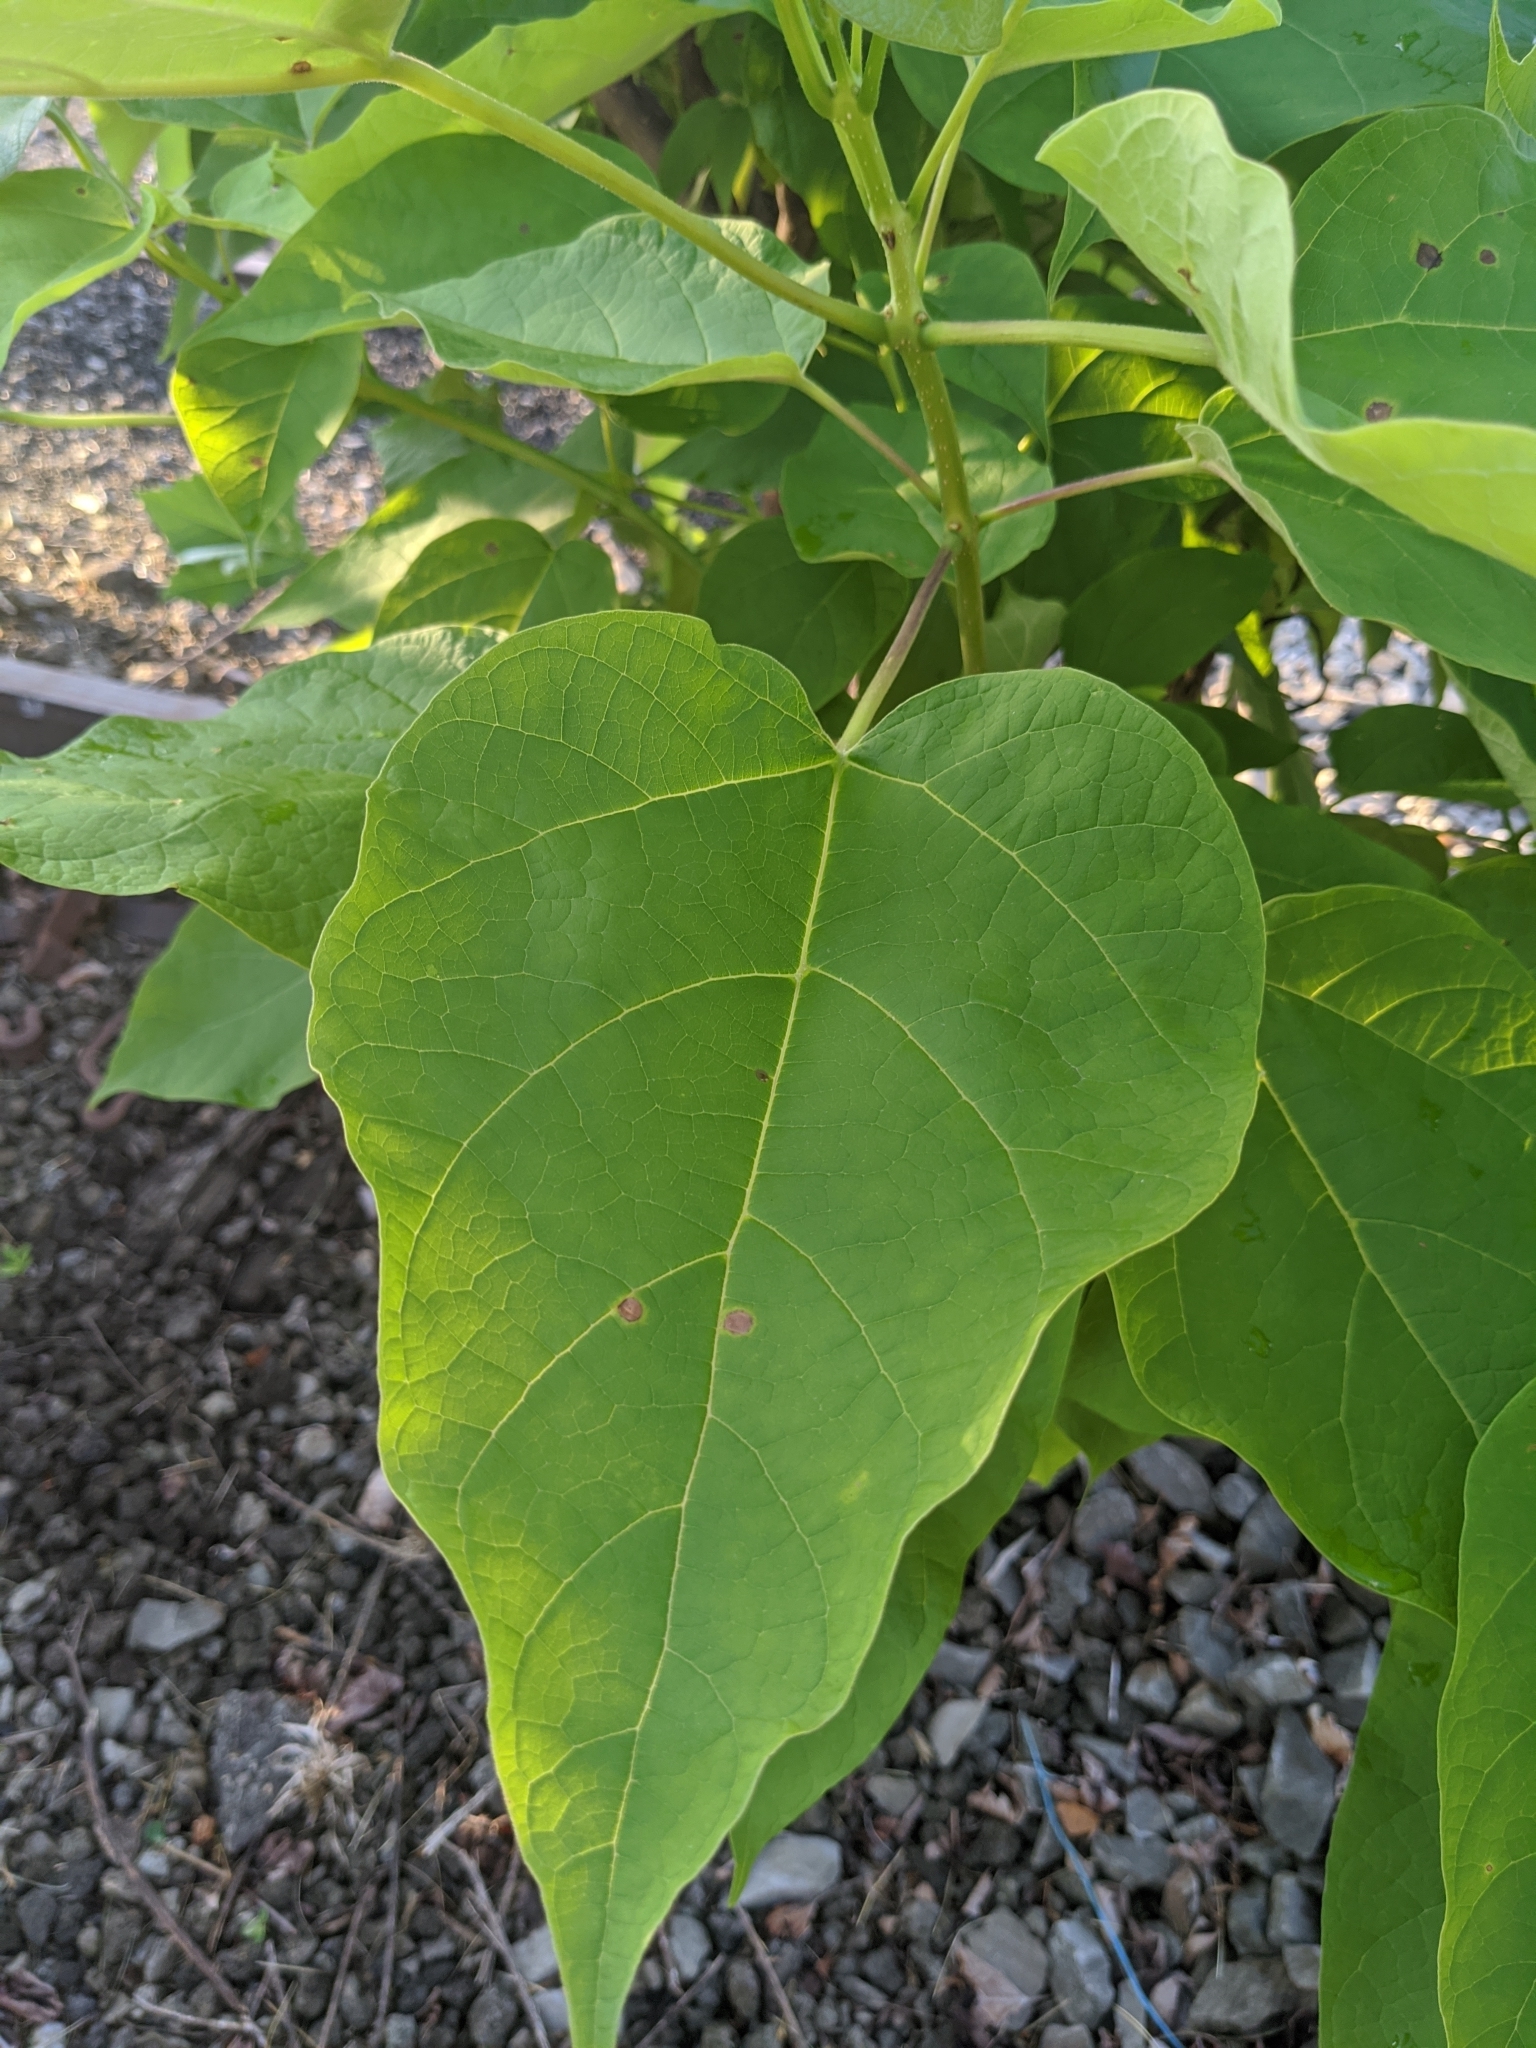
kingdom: Plantae
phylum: Tracheophyta
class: Magnoliopsida
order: Lamiales
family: Bignoniaceae
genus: Catalpa
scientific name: Catalpa speciosa
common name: Northern catalpa
